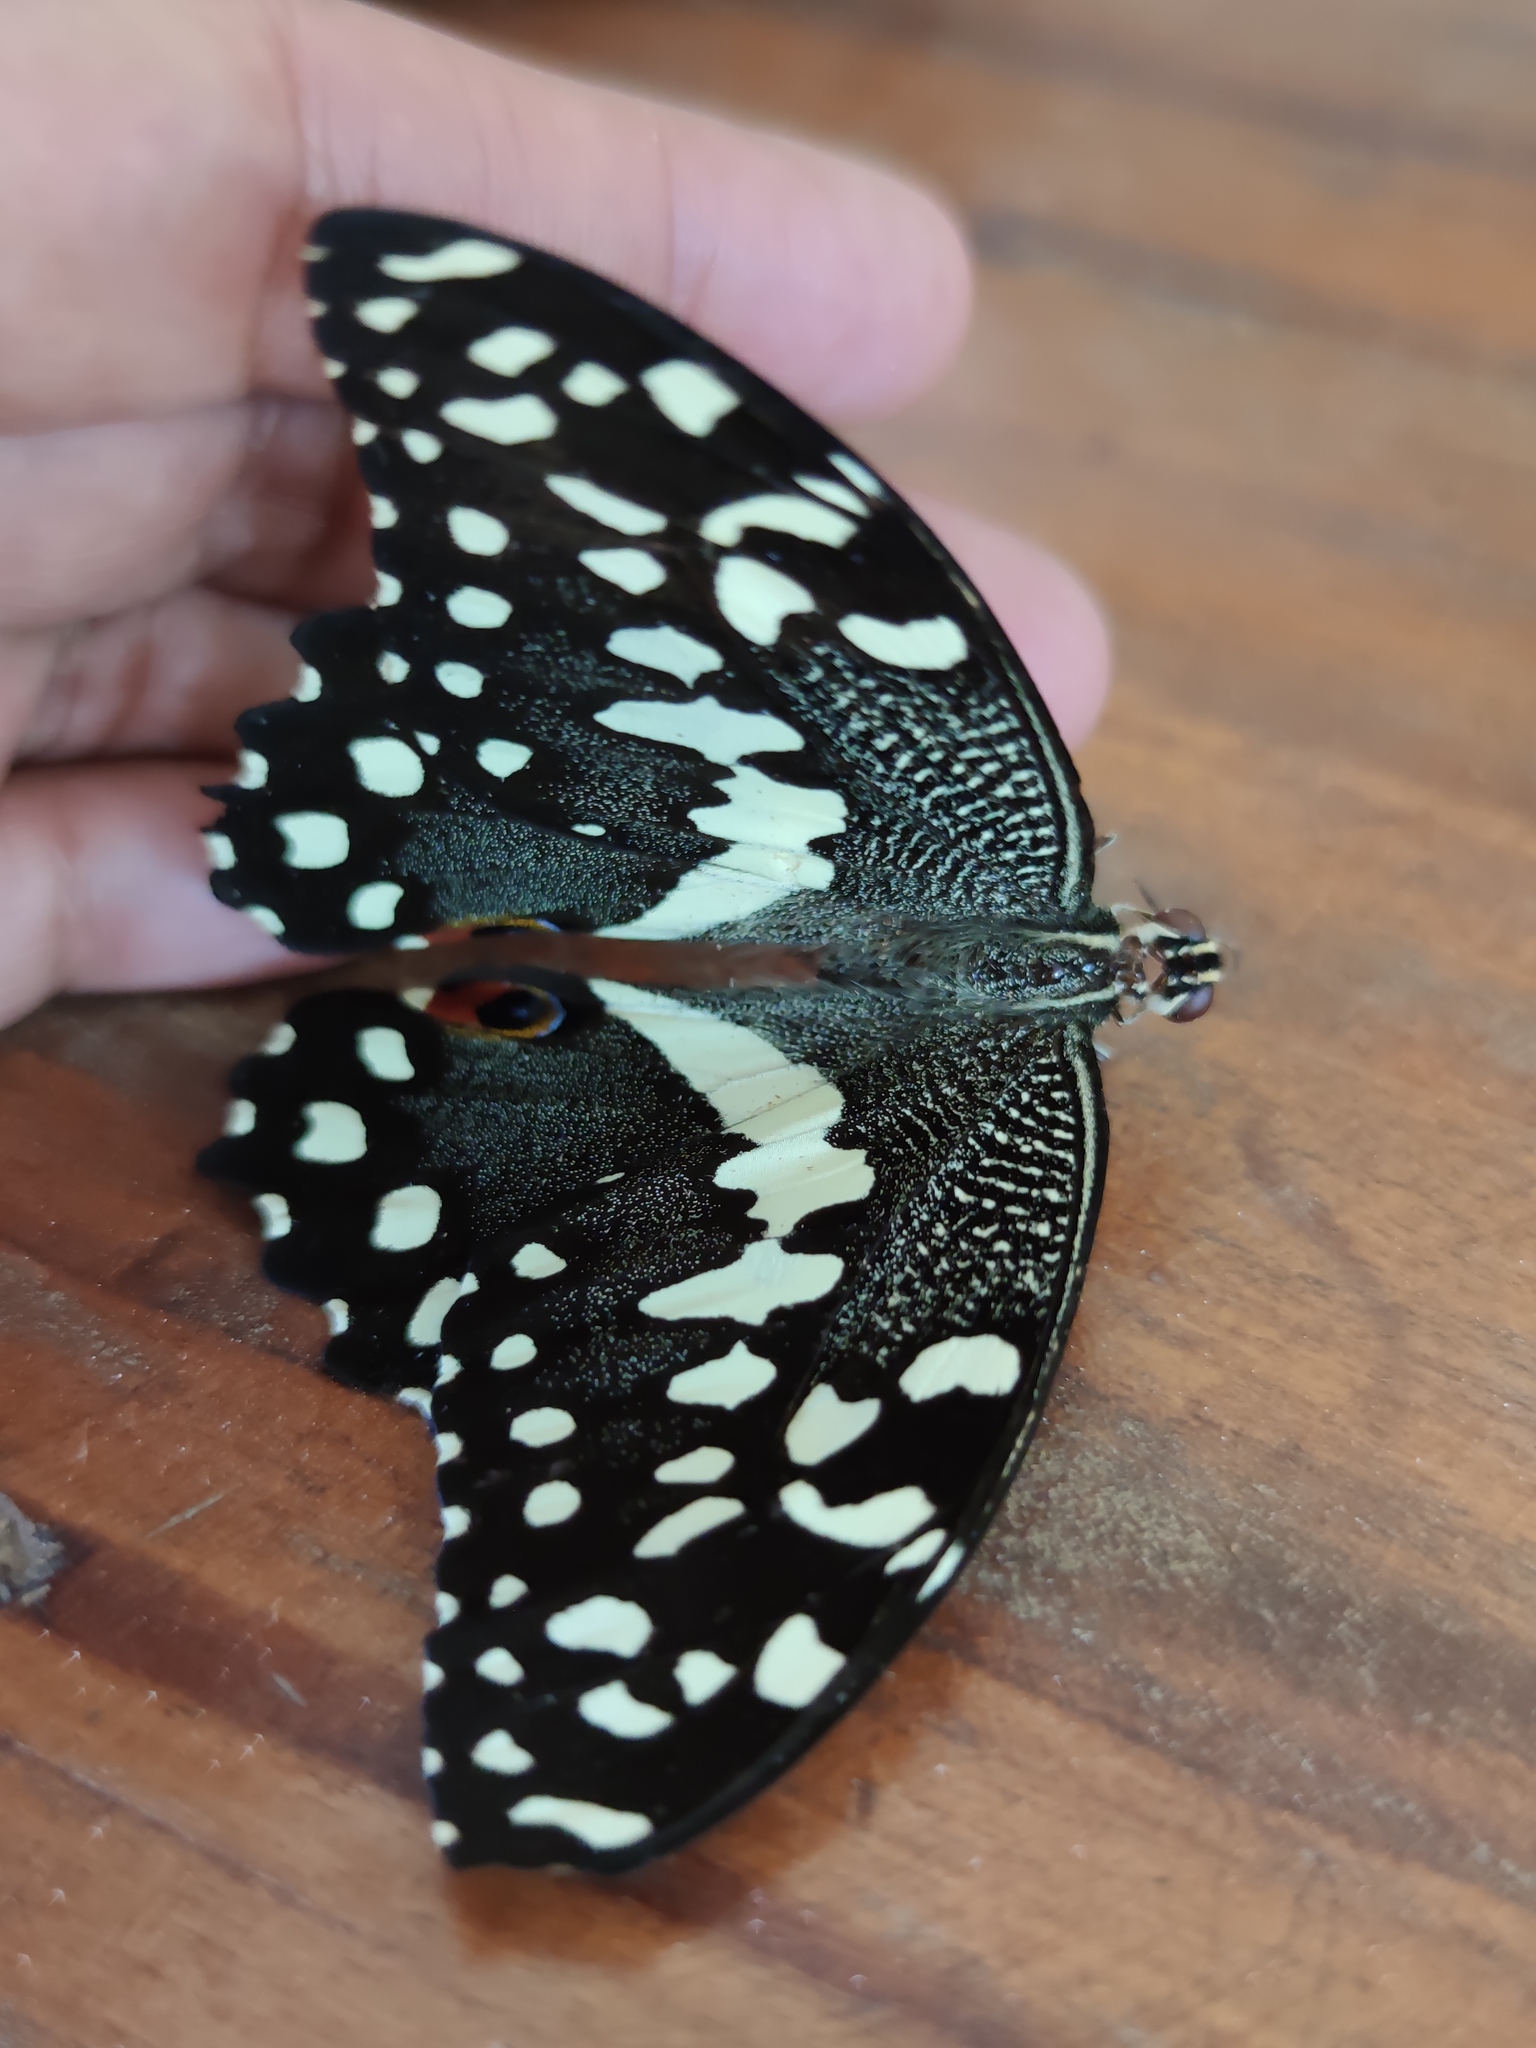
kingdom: Animalia
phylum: Arthropoda
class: Insecta
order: Lepidoptera
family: Papilionidae
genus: Papilio
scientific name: Papilio demodocus
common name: Christmas butterfly
